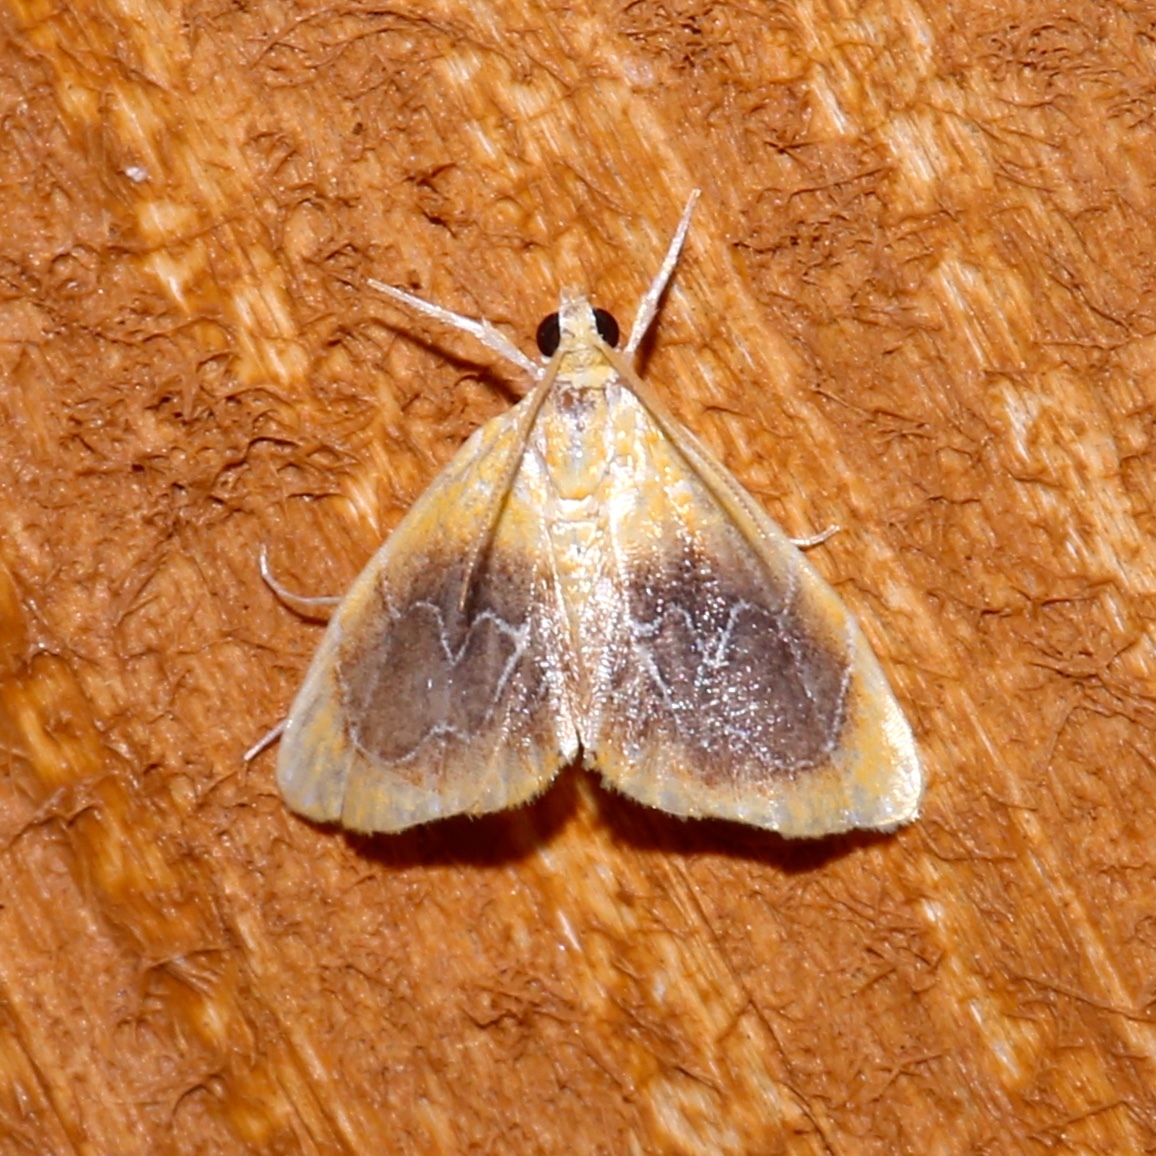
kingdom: Animalia
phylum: Arthropoda
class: Insecta
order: Lepidoptera
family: Crambidae
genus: Glaphyria
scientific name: Glaphyria cappsi
